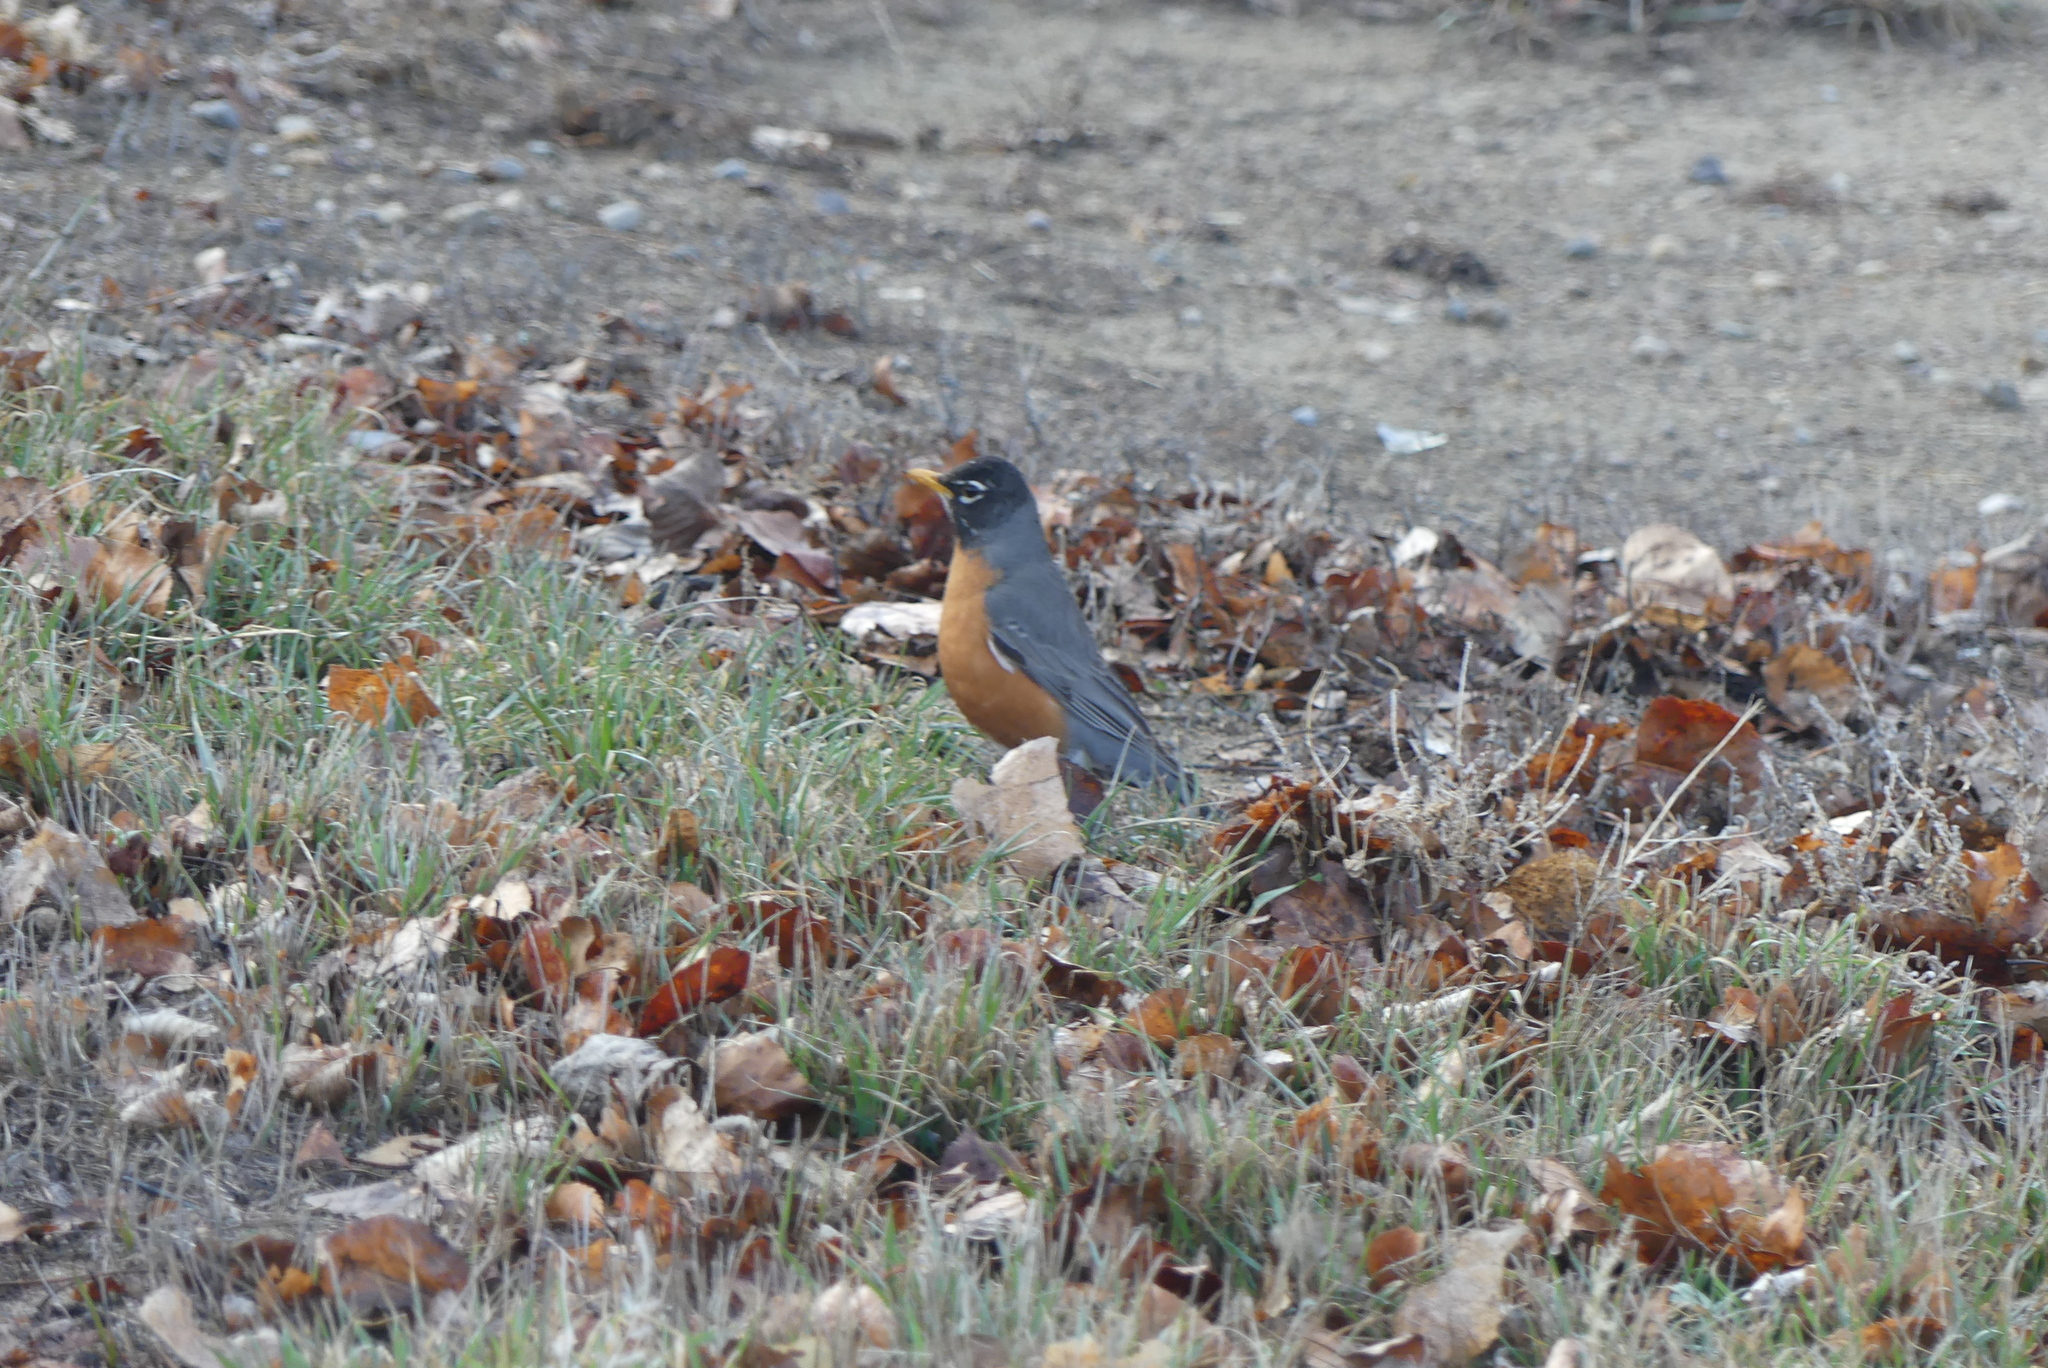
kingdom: Animalia
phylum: Chordata
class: Aves
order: Passeriformes
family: Turdidae
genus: Turdus
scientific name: Turdus migratorius
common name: American robin
